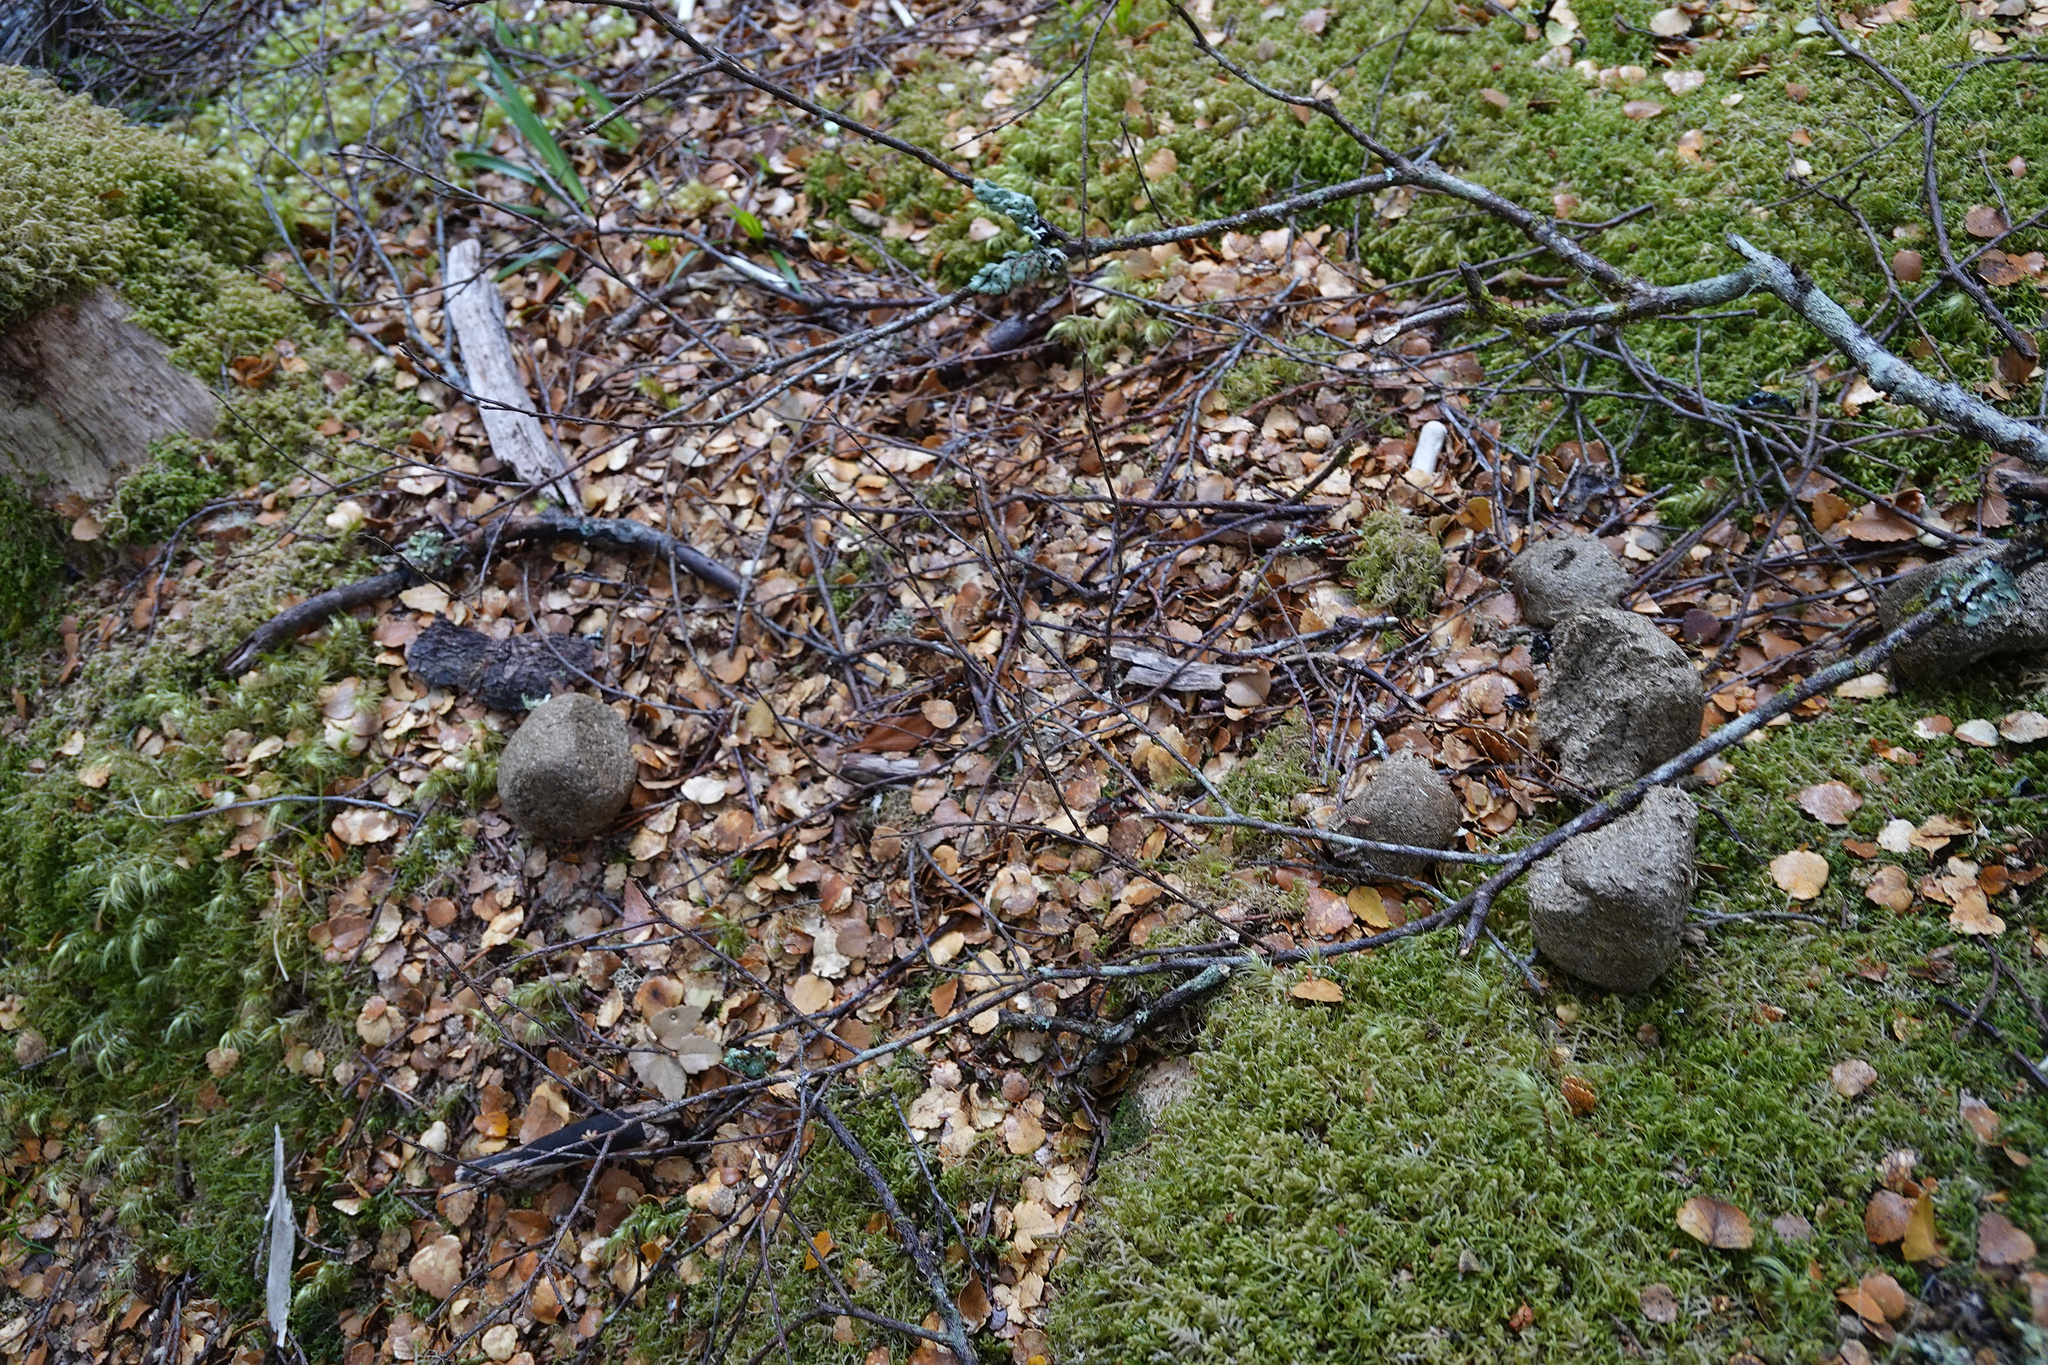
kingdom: Animalia
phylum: Chordata
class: Mammalia
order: Diprotodontia
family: Vombatidae
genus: Vombatus
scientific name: Vombatus ursinus
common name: Common wombat
